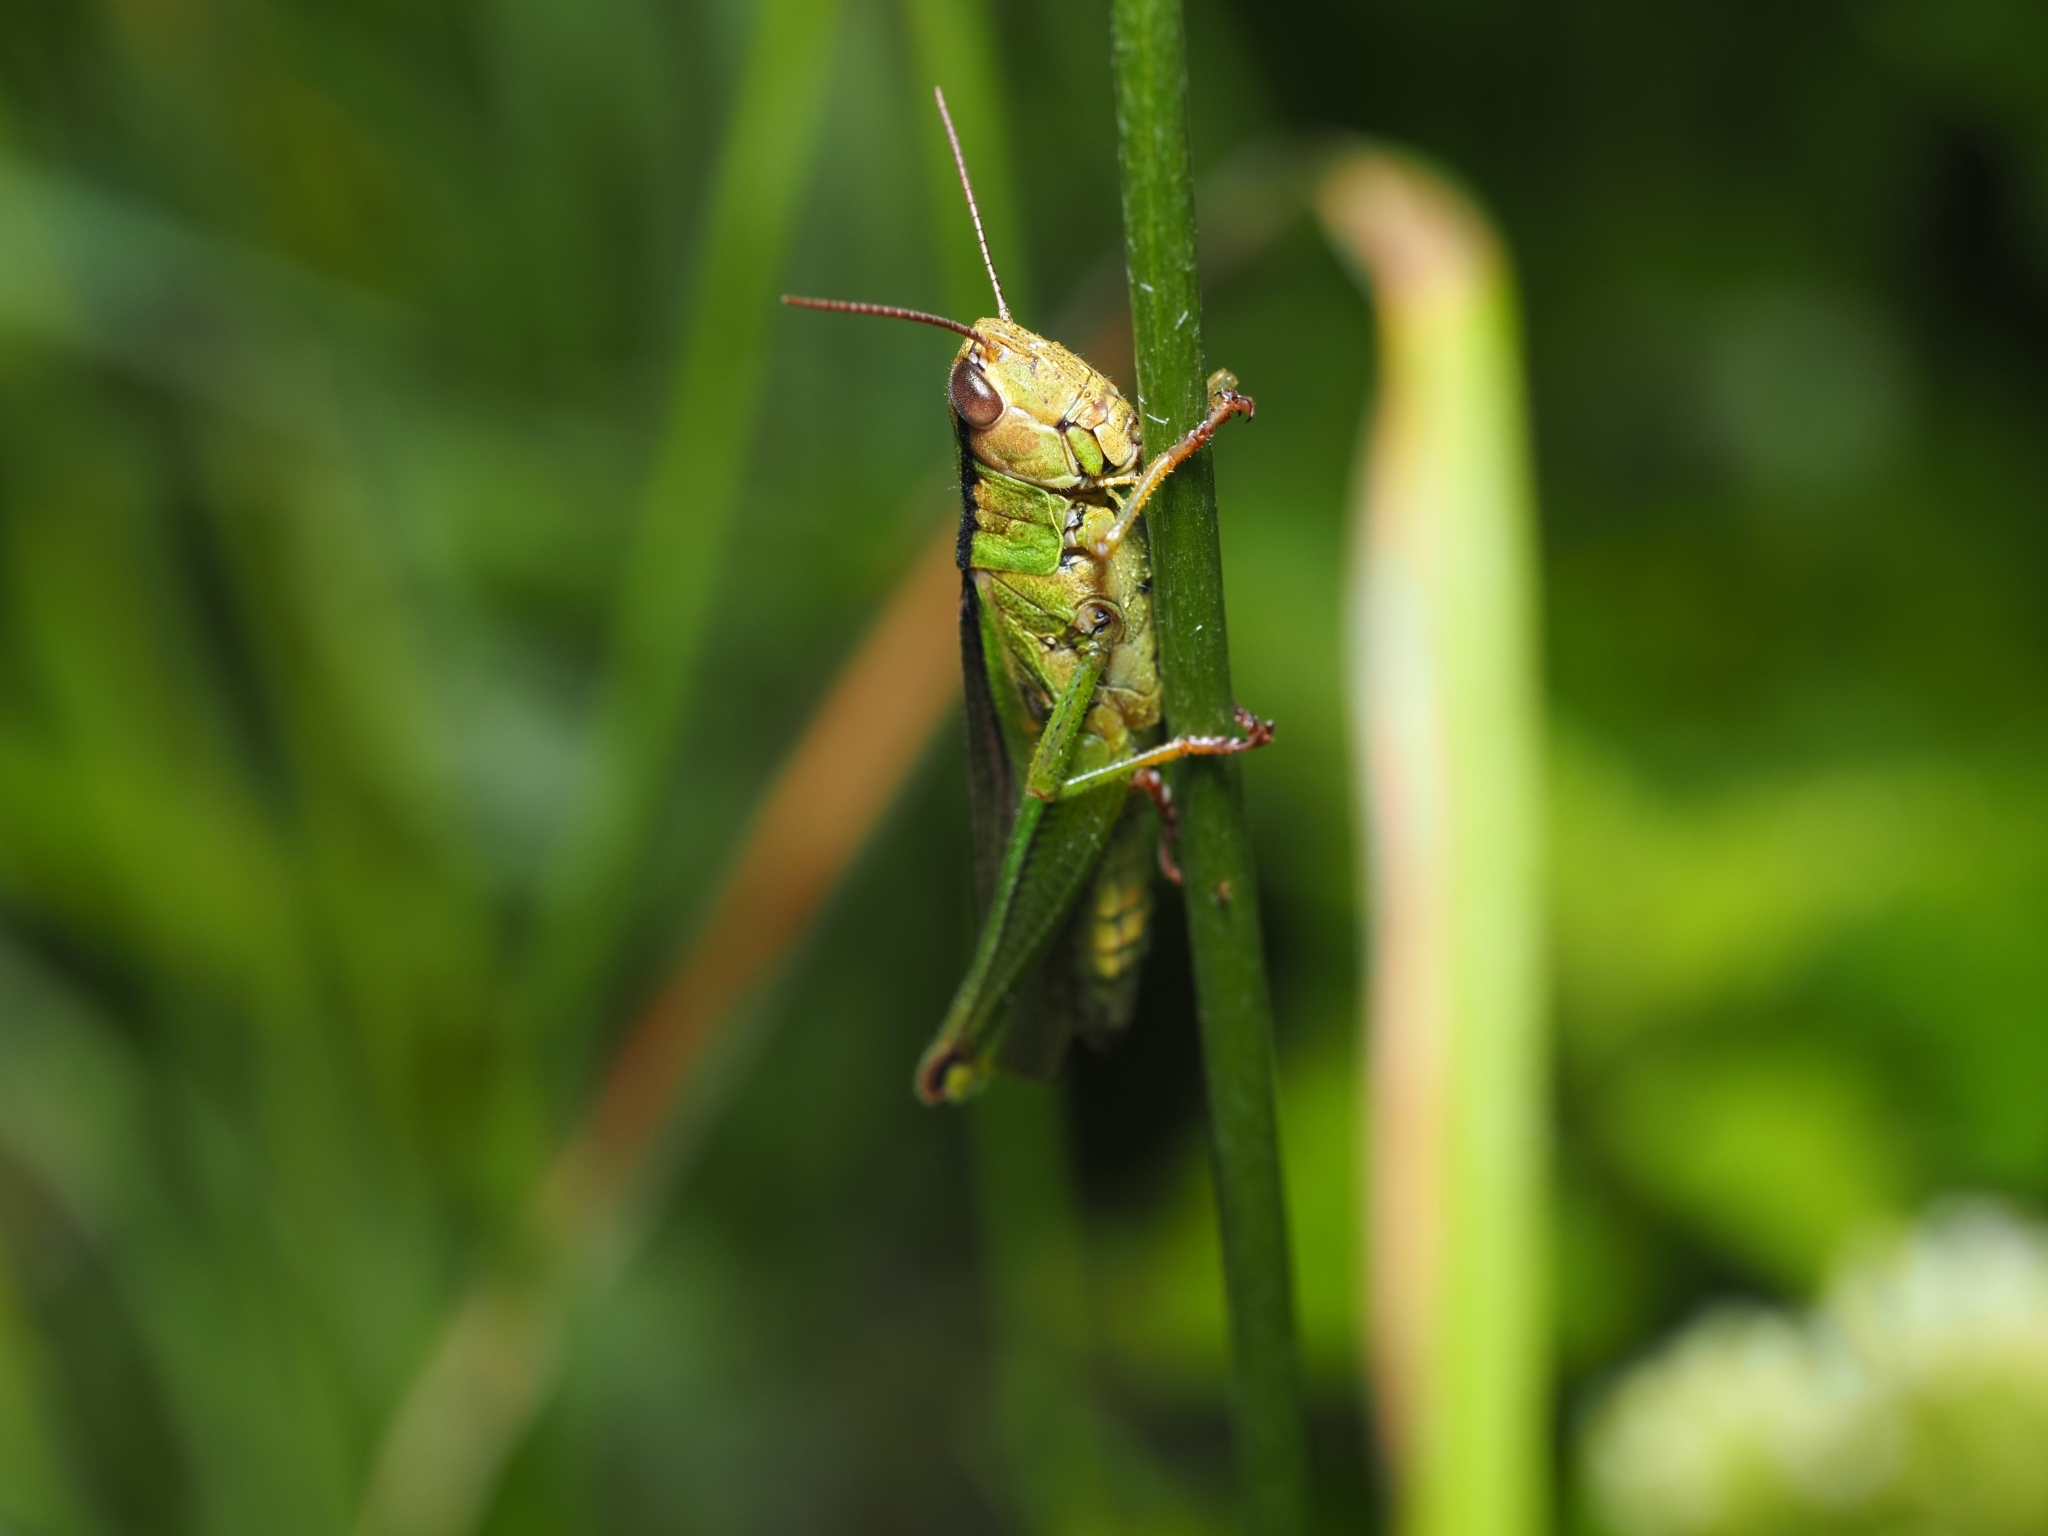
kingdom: Animalia
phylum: Arthropoda
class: Insecta
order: Orthoptera
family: Acrididae
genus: Mecostethus
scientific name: Mecostethus parapleurus
